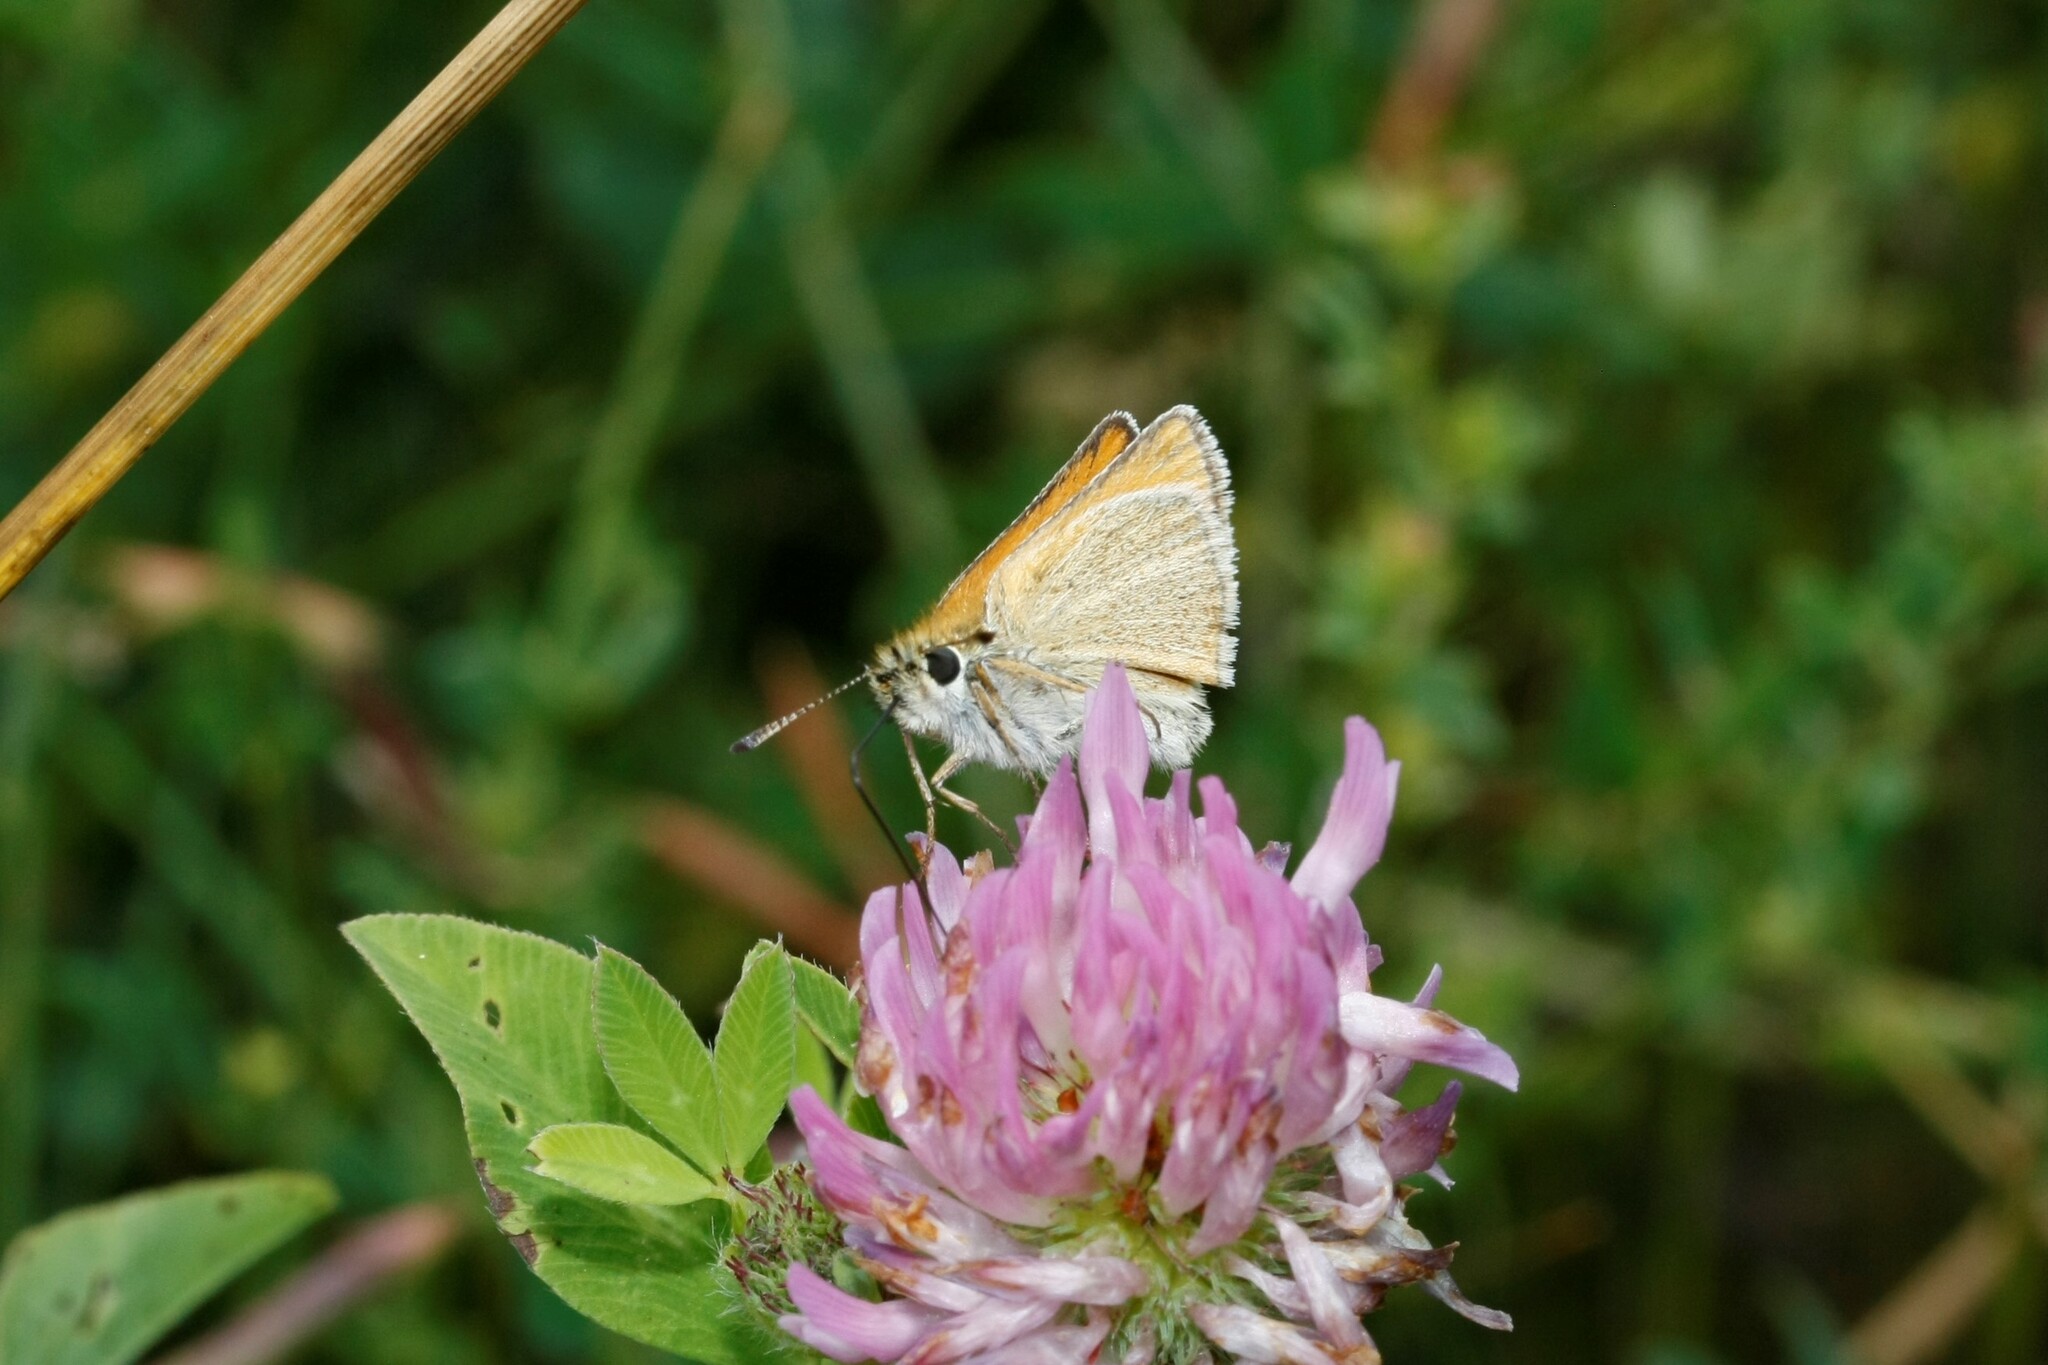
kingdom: Animalia
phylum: Arthropoda
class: Insecta
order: Lepidoptera
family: Hesperiidae
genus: Thymelicus
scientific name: Thymelicus lineola
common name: Essex skipper
